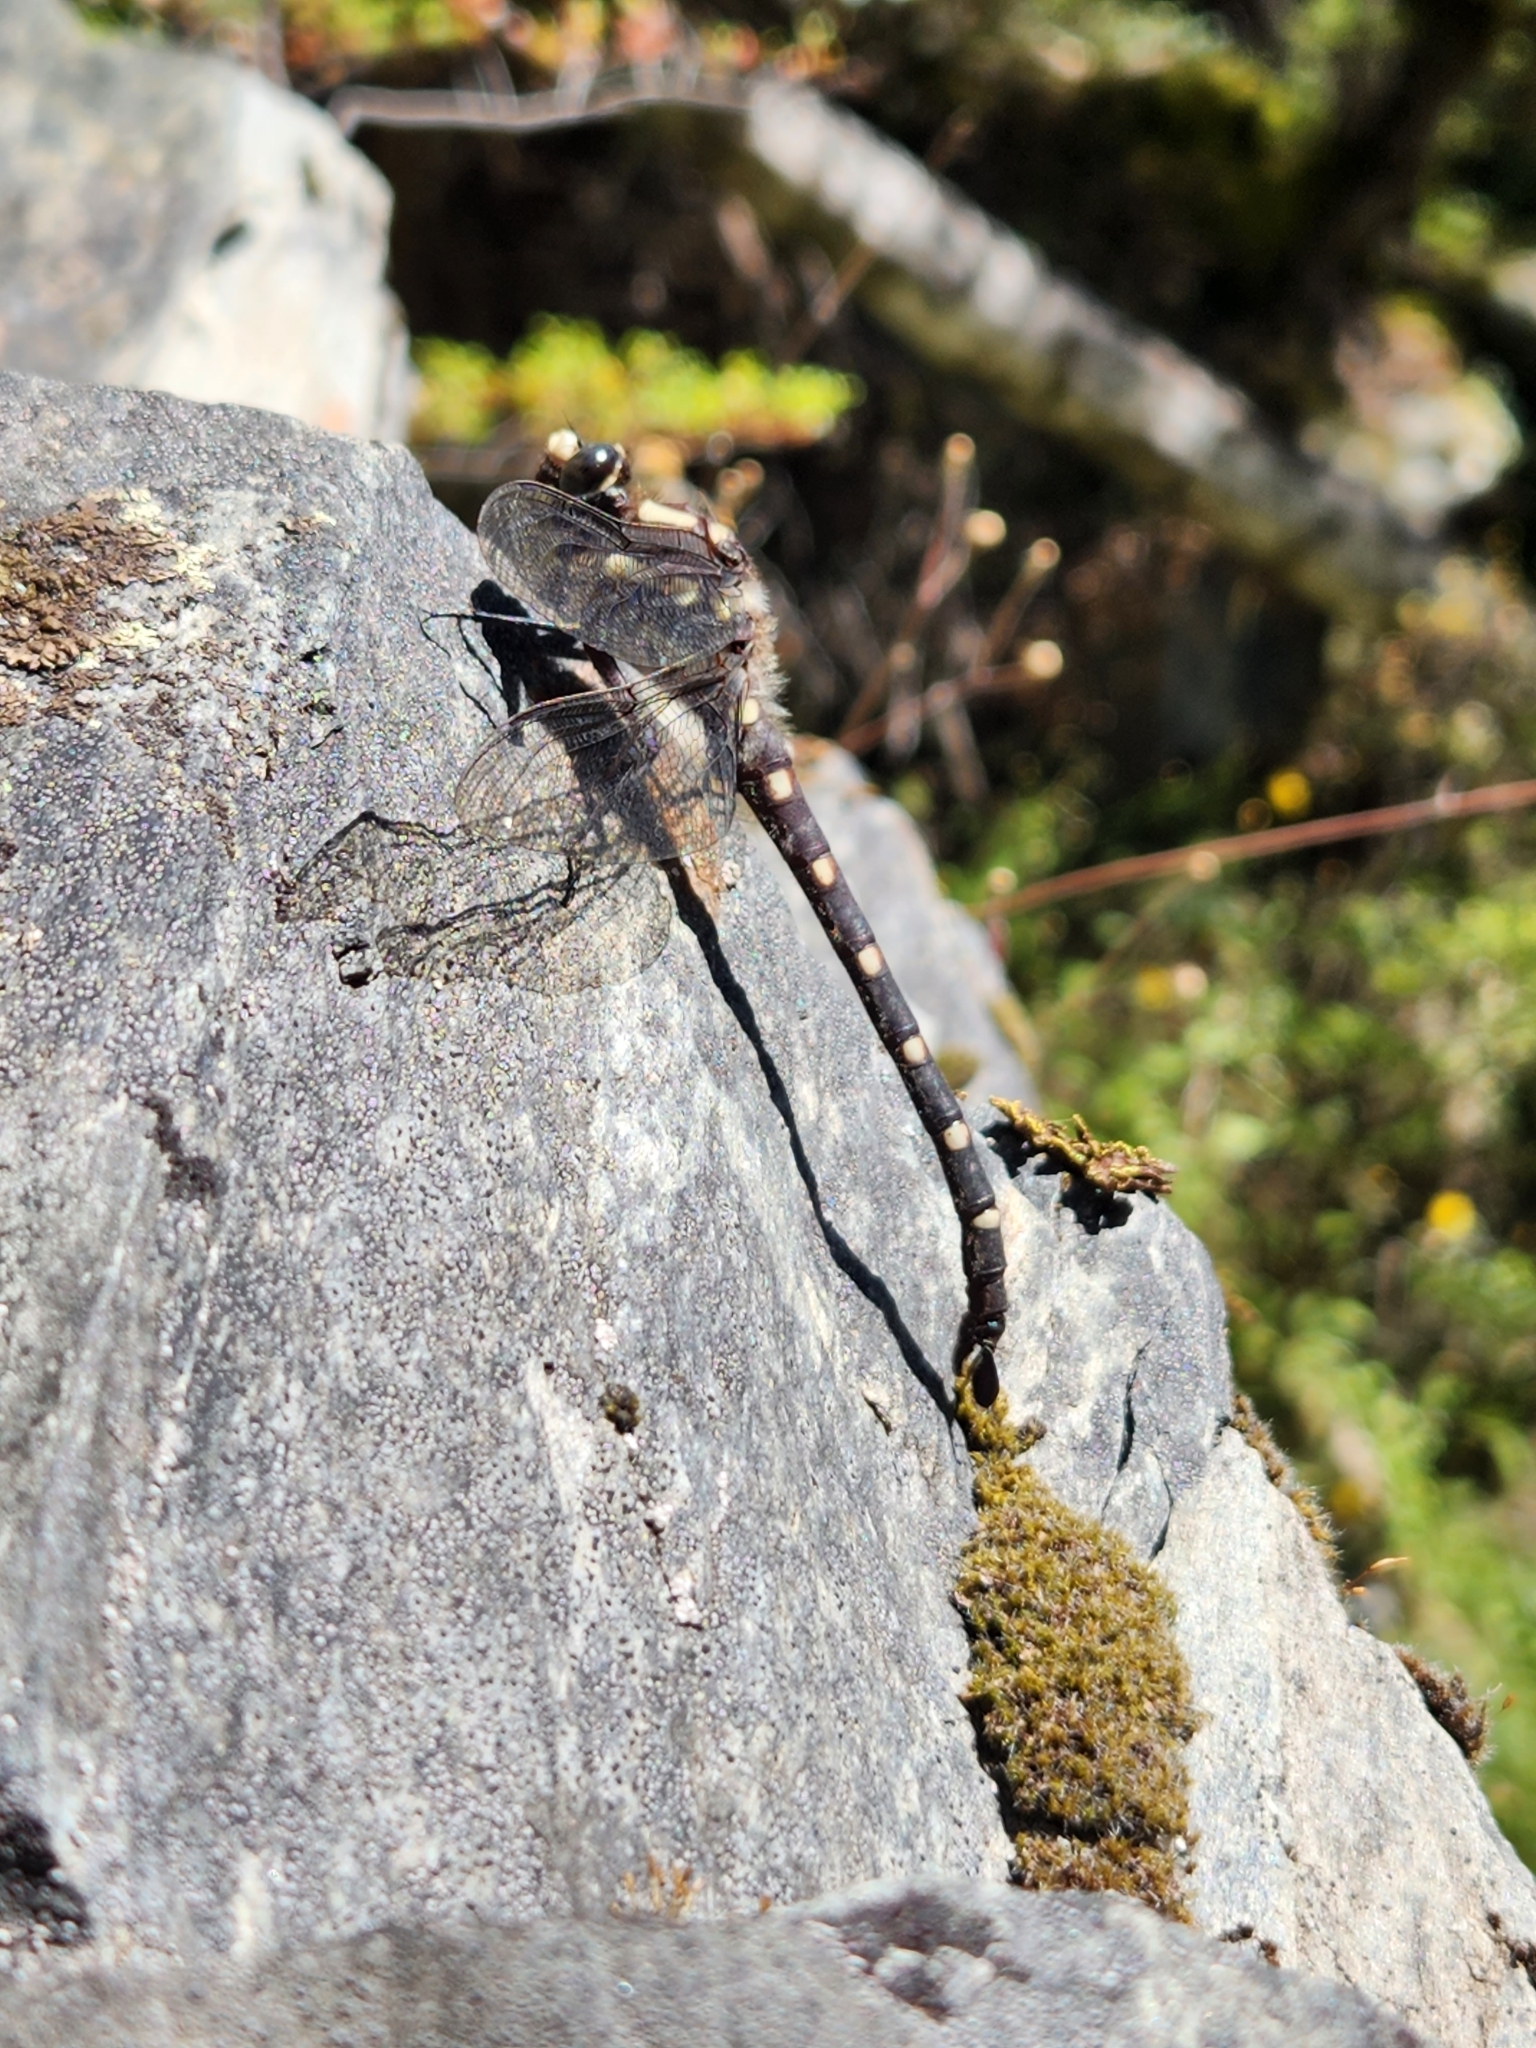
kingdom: Animalia
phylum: Arthropoda
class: Insecta
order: Odonata
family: Petaluridae
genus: Uropetala
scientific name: Uropetala carovei
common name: Bush giant dragonfly
